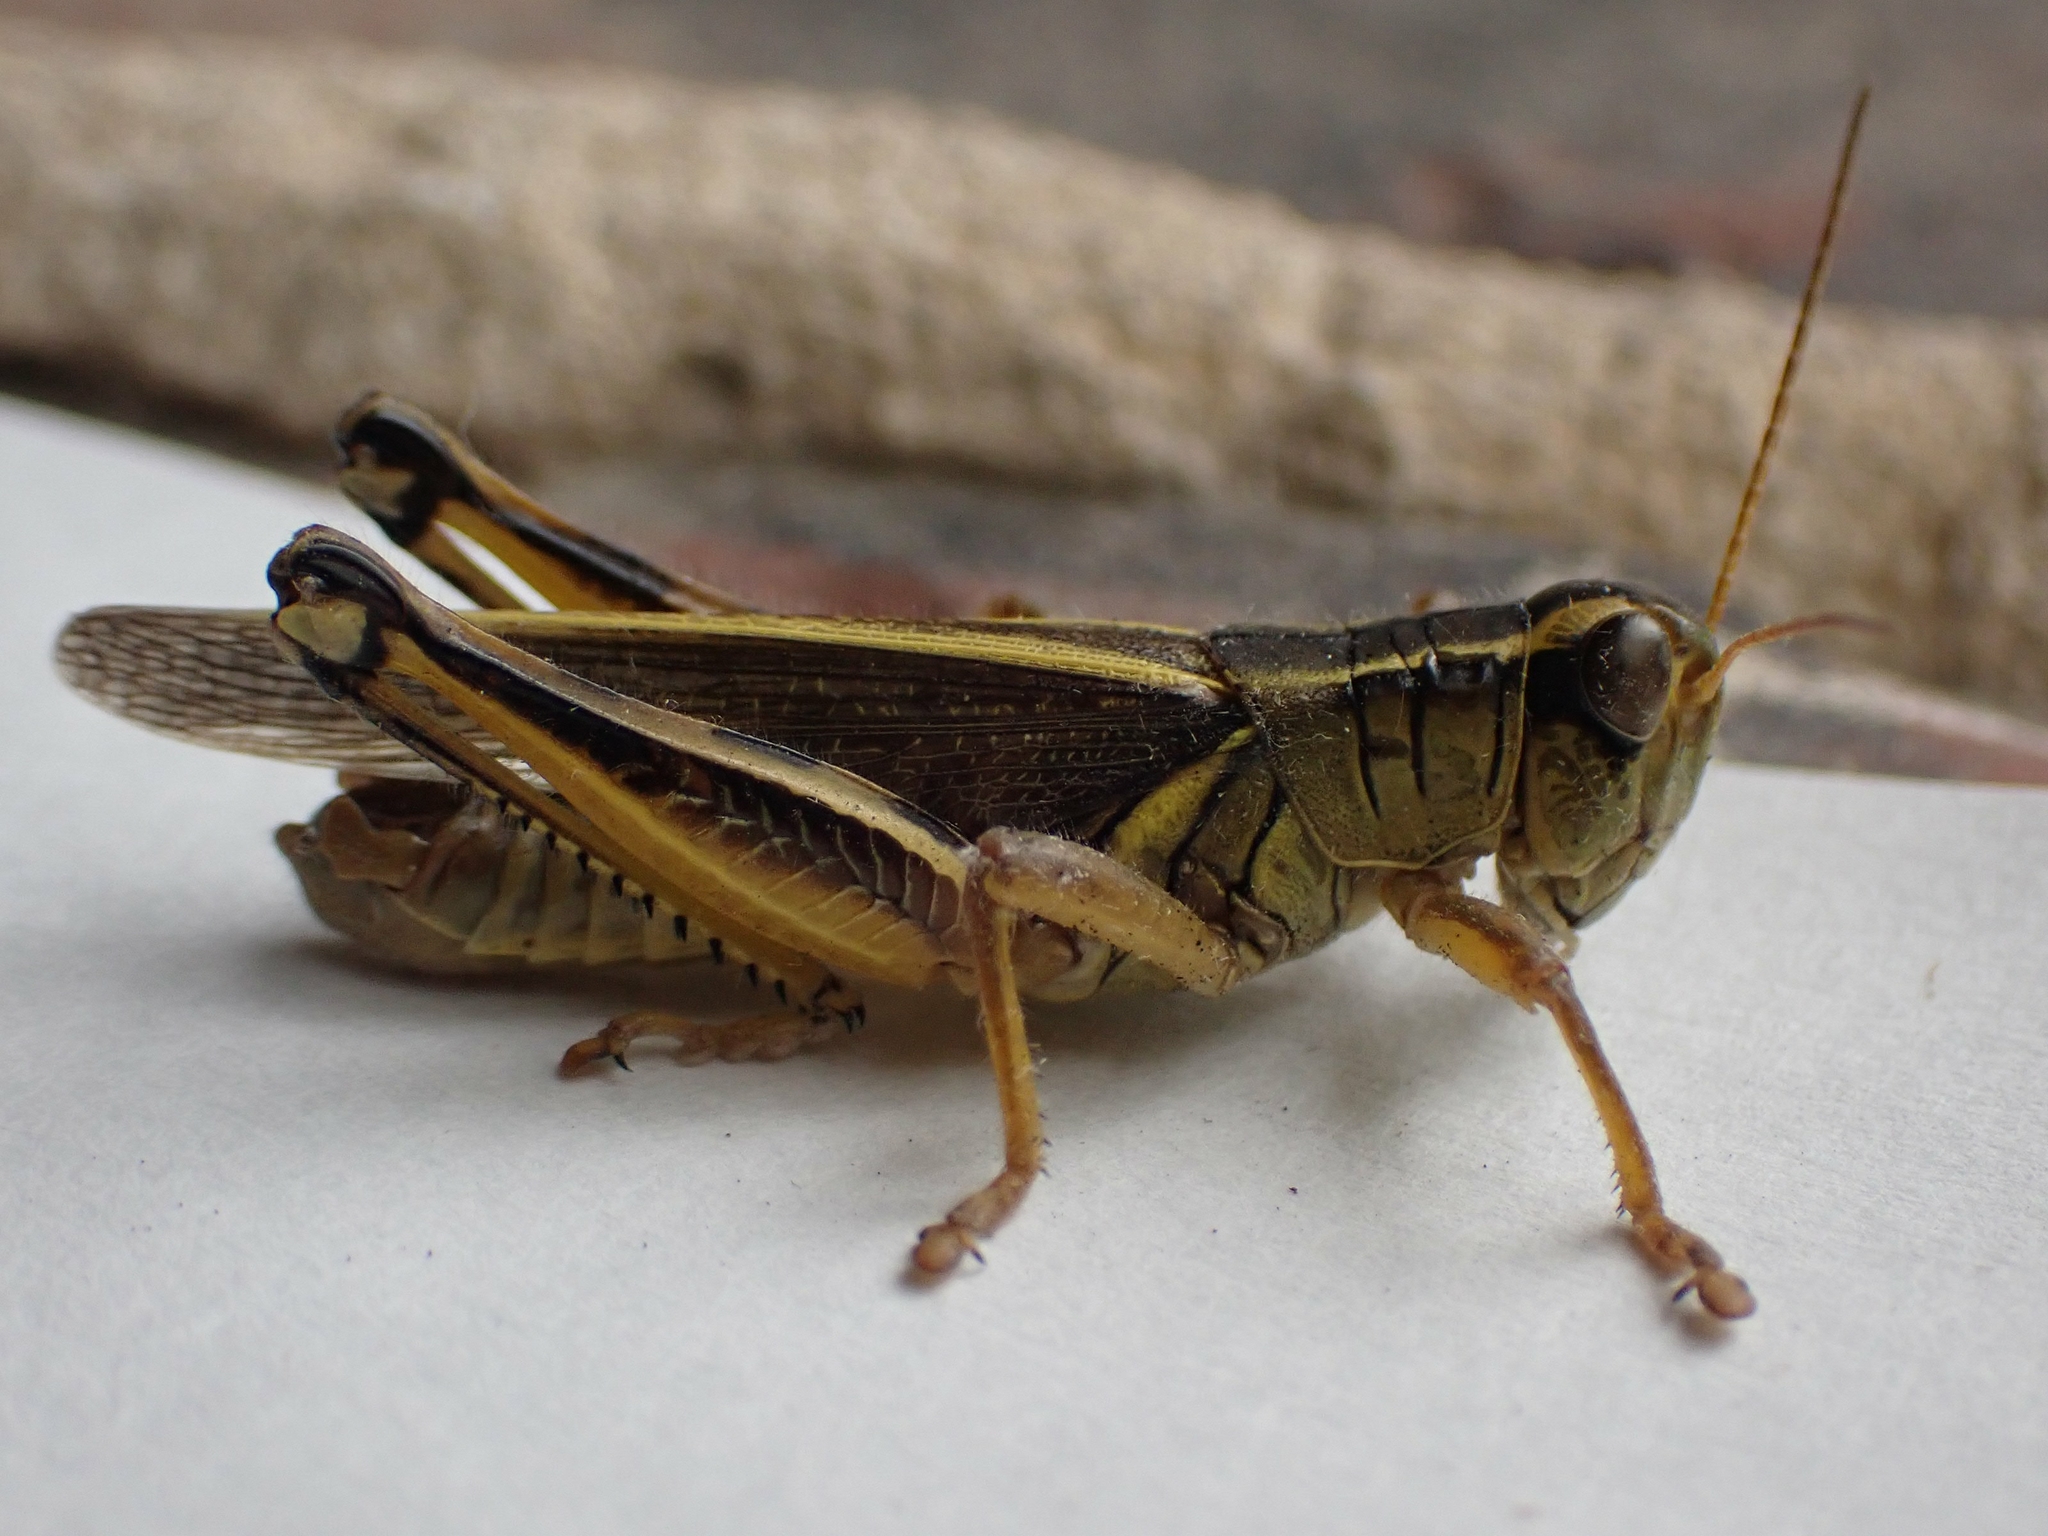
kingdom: Animalia
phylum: Arthropoda
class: Insecta
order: Orthoptera
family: Acrididae
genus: Melanoplus
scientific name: Melanoplus bivittatus
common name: Two-striped grasshopper
